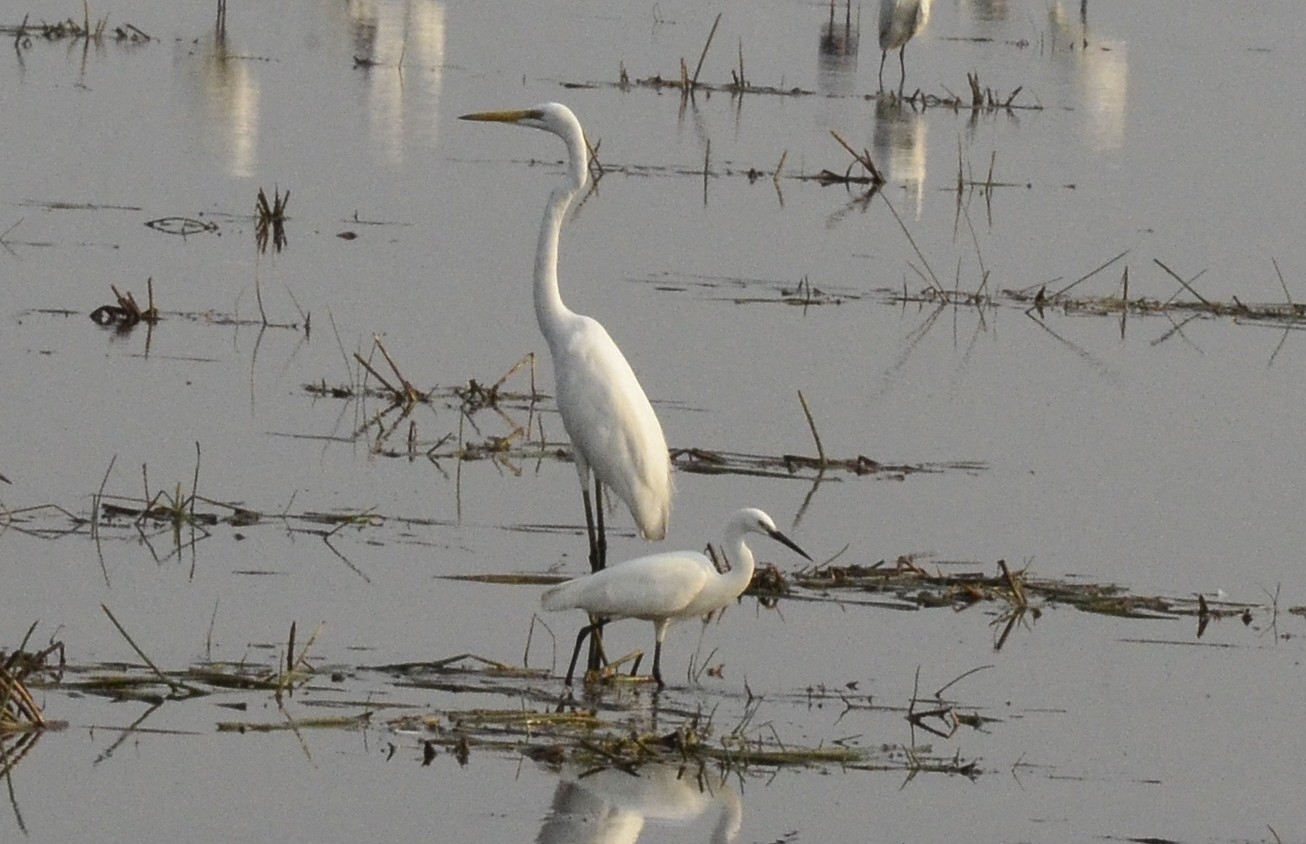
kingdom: Animalia
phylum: Chordata
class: Aves
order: Pelecaniformes
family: Ardeidae
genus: Ardea
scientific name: Ardea alba
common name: Great egret
